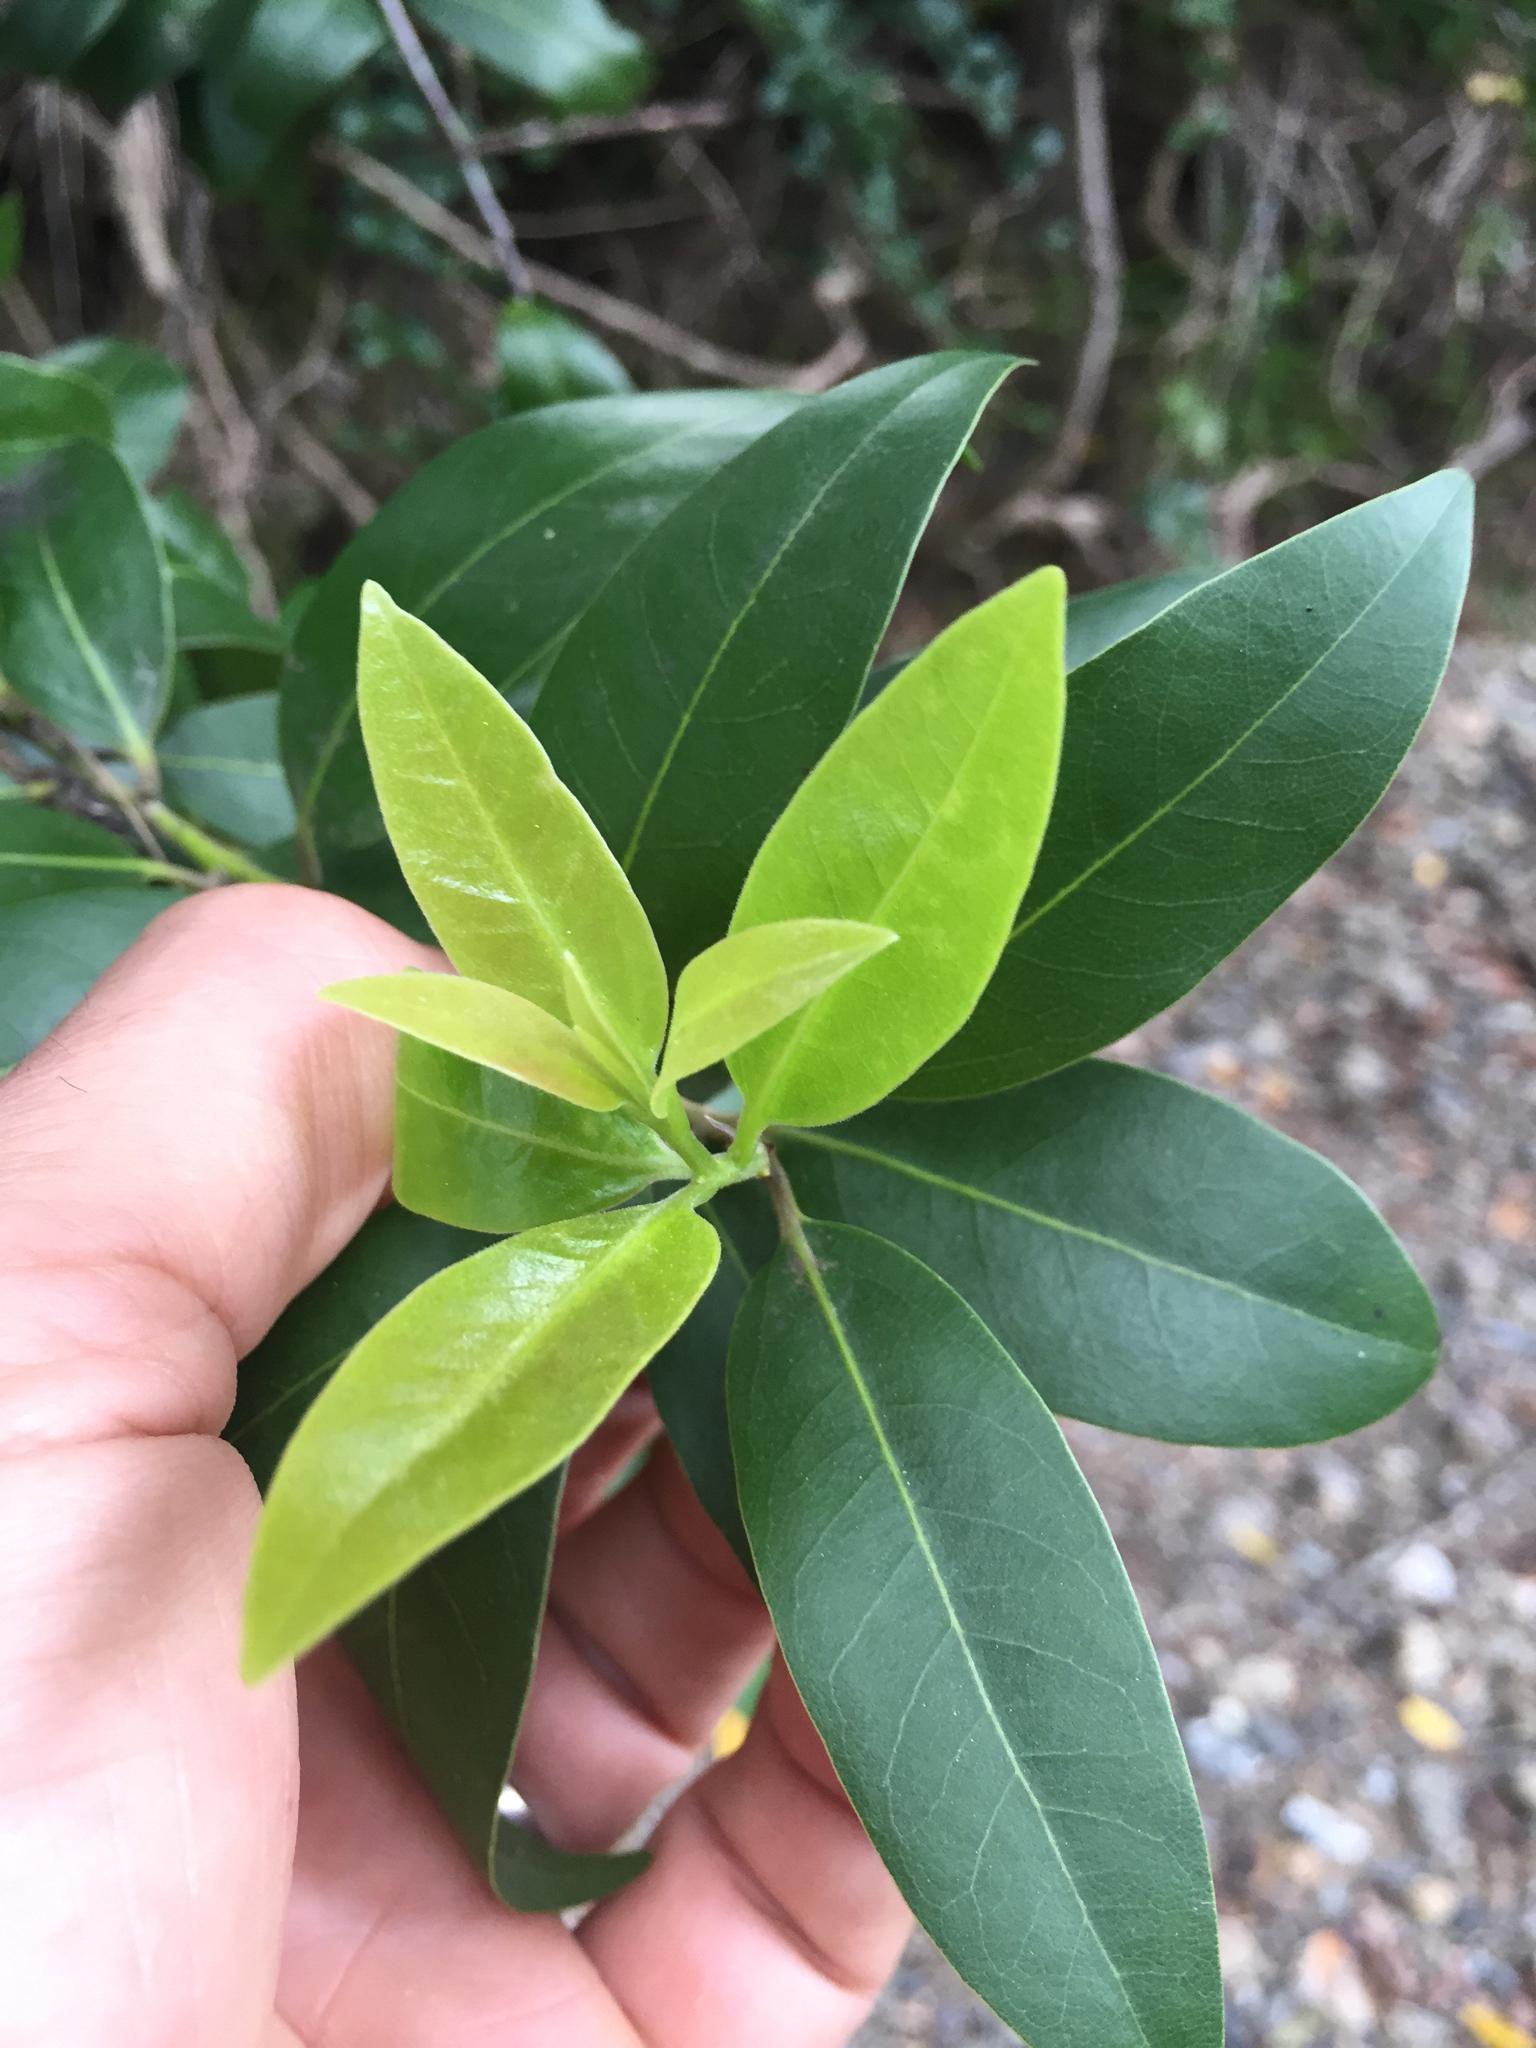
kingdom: Plantae
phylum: Tracheophyta
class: Magnoliopsida
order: Laurales
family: Lauraceae
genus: Umbellularia
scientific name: Umbellularia californica
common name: California bay
